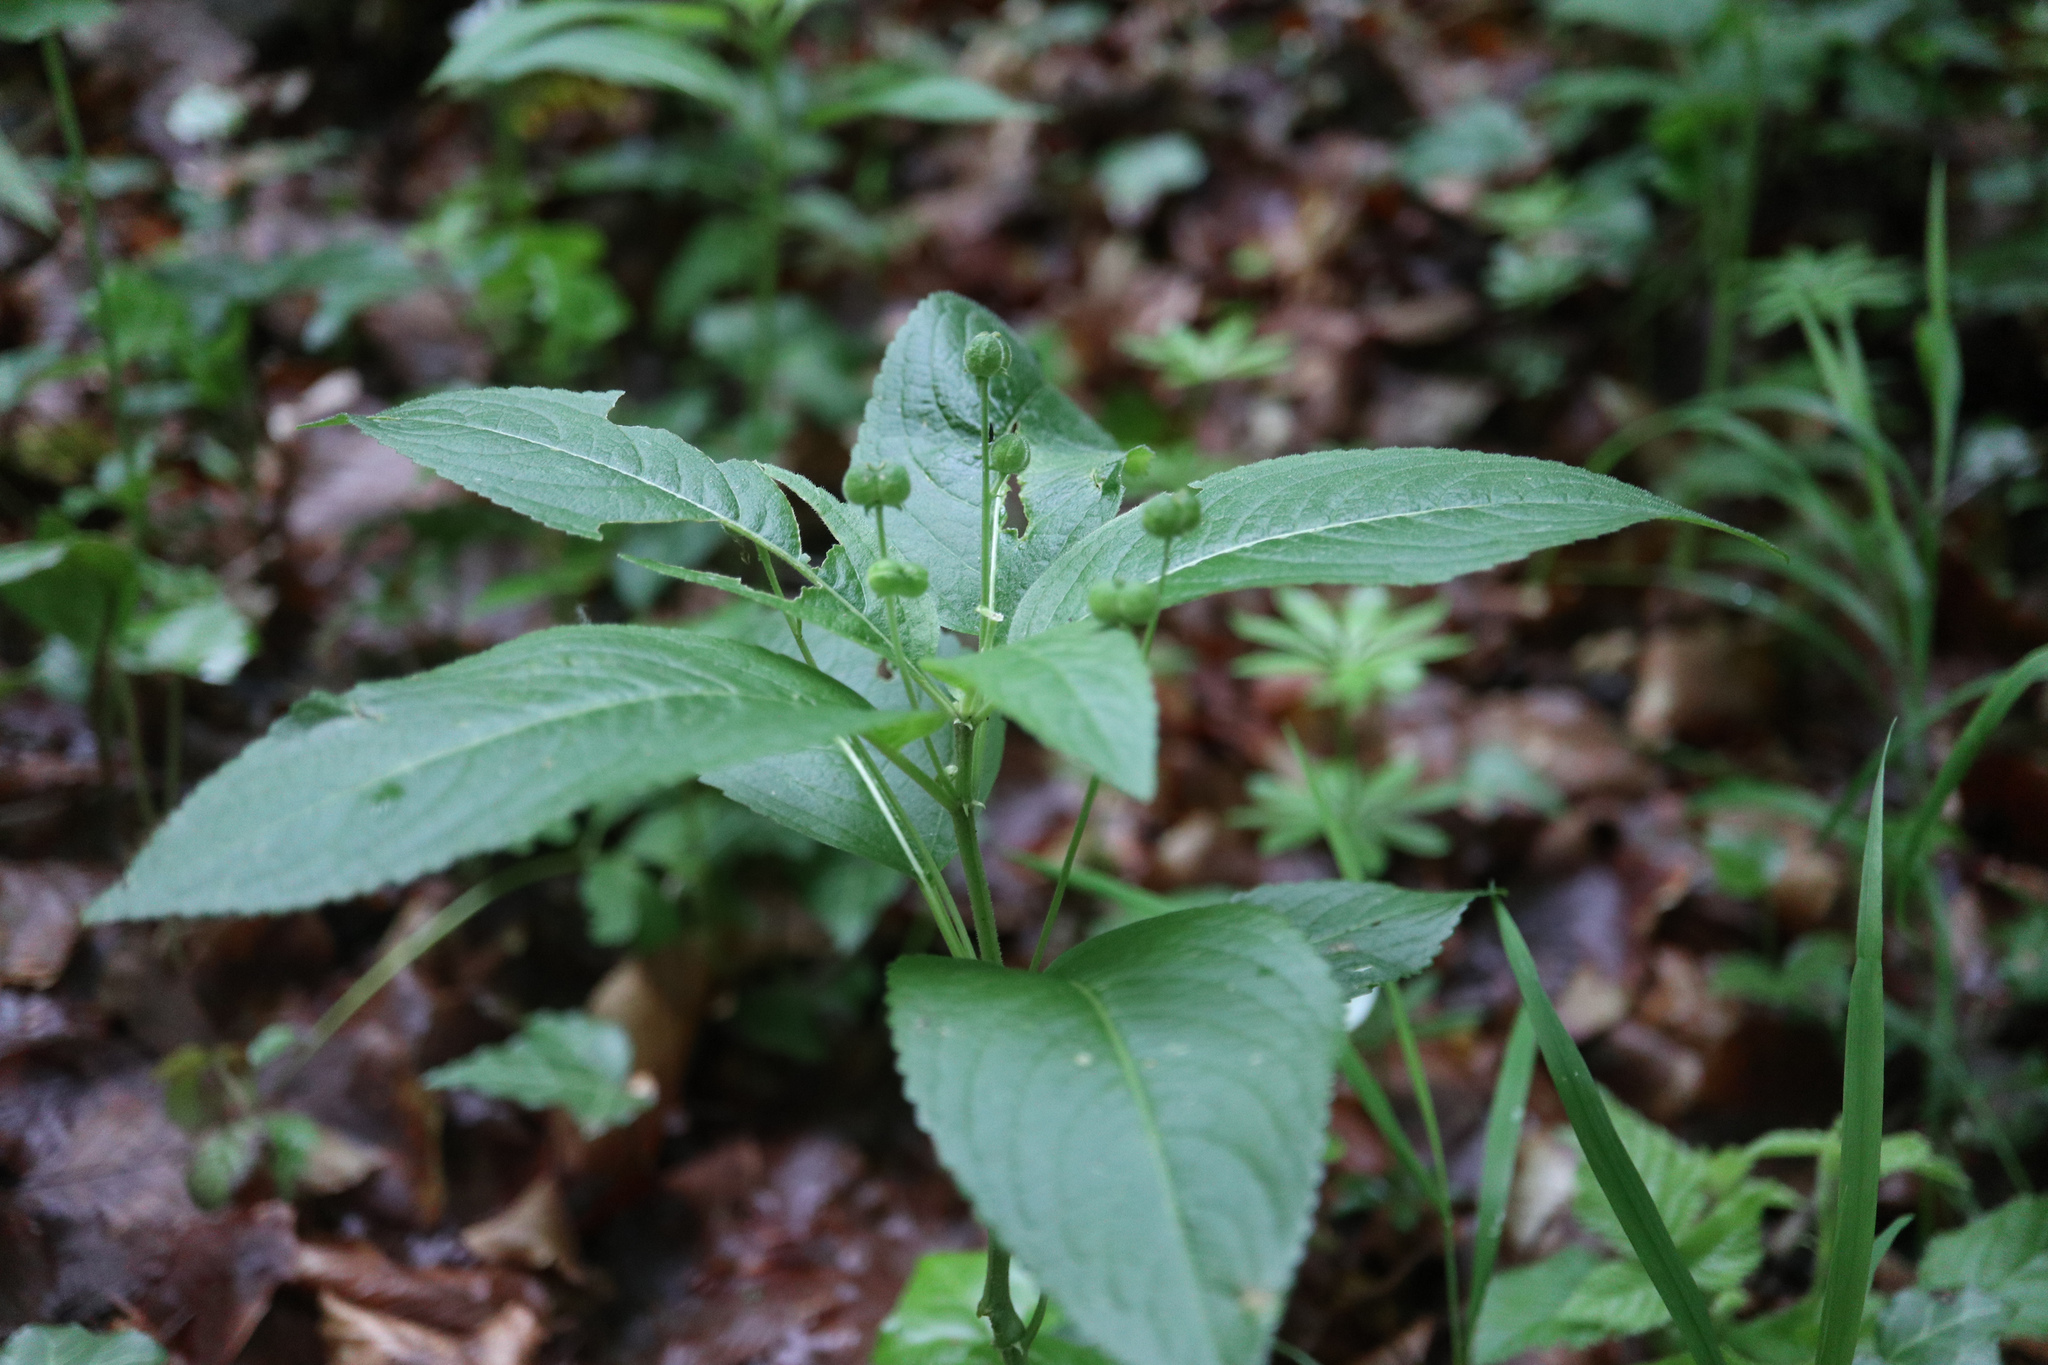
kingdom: Plantae
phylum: Tracheophyta
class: Magnoliopsida
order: Malpighiales
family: Euphorbiaceae
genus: Mercurialis
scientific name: Mercurialis perennis
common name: Dog mercury
